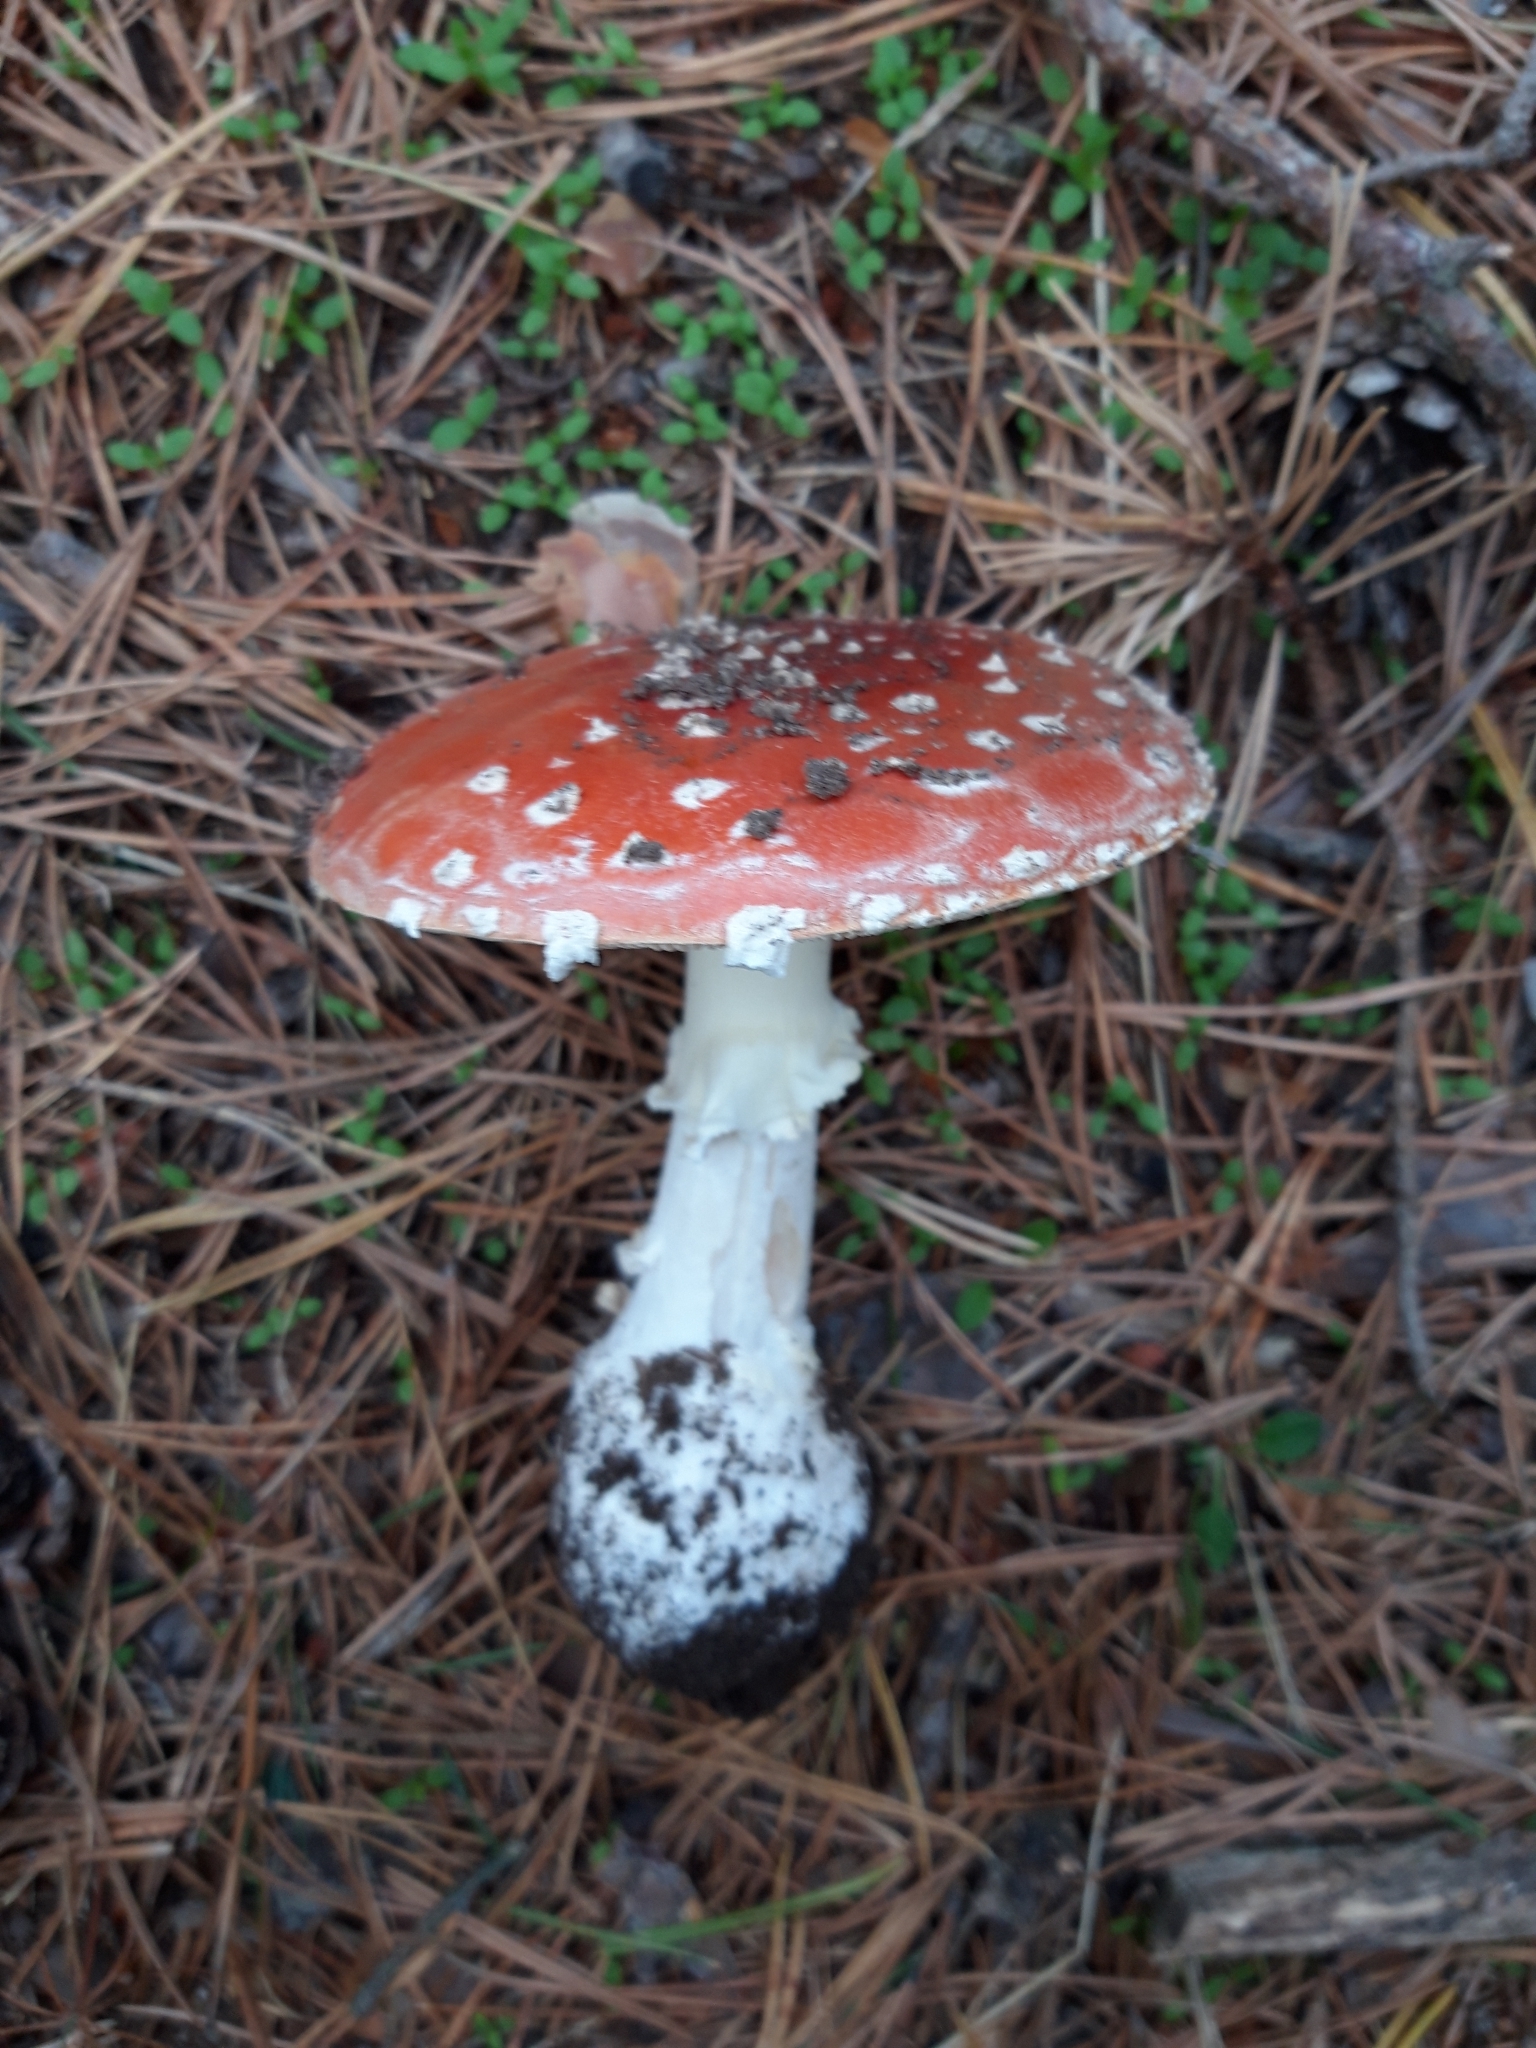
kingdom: Fungi
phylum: Basidiomycota
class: Agaricomycetes
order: Agaricales
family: Amanitaceae
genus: Amanita
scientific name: Amanita muscaria
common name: Fly agaric
